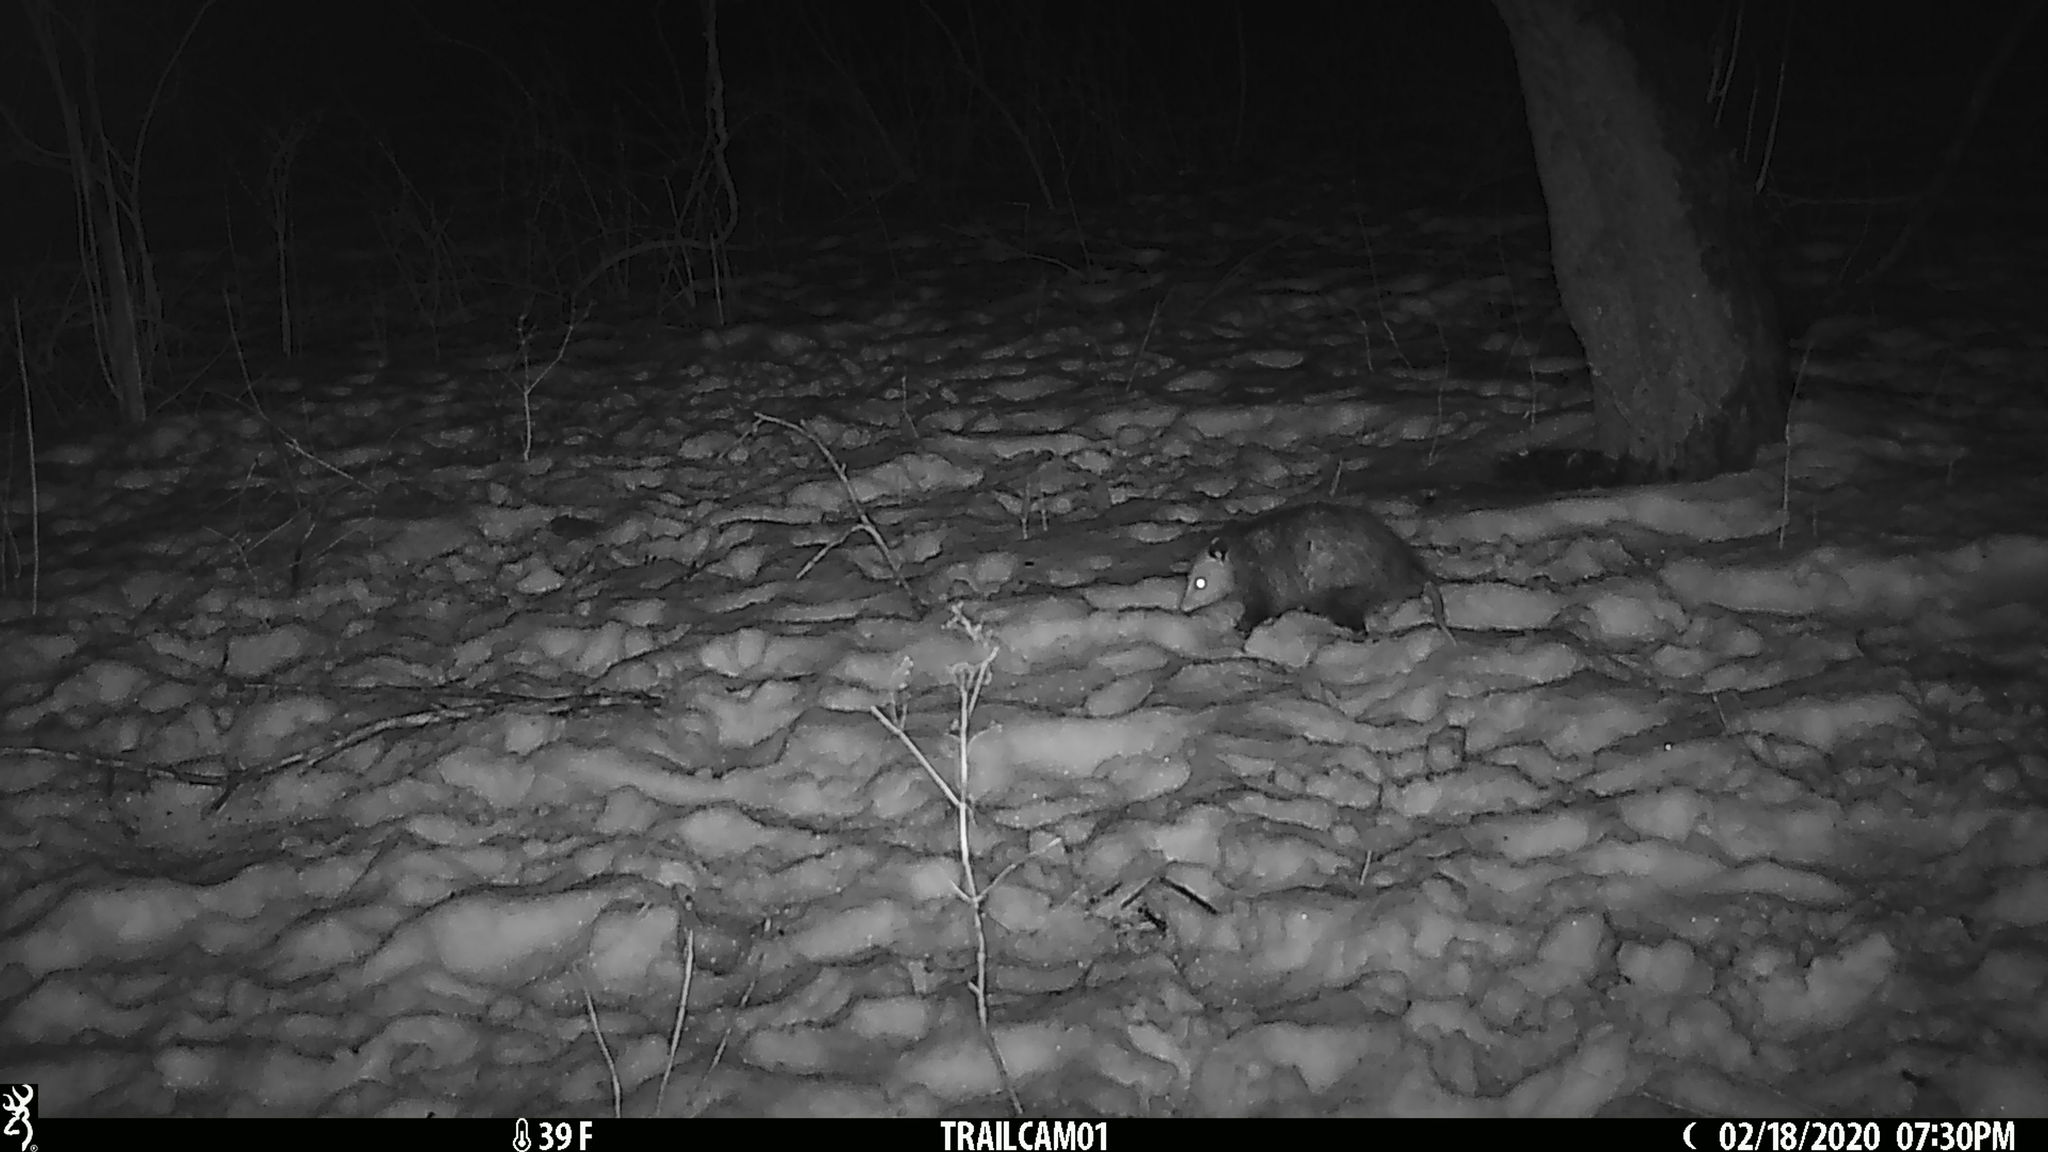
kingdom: Animalia
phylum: Chordata
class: Mammalia
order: Didelphimorphia
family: Didelphidae
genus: Didelphis
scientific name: Didelphis virginiana
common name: Virginia opossum
